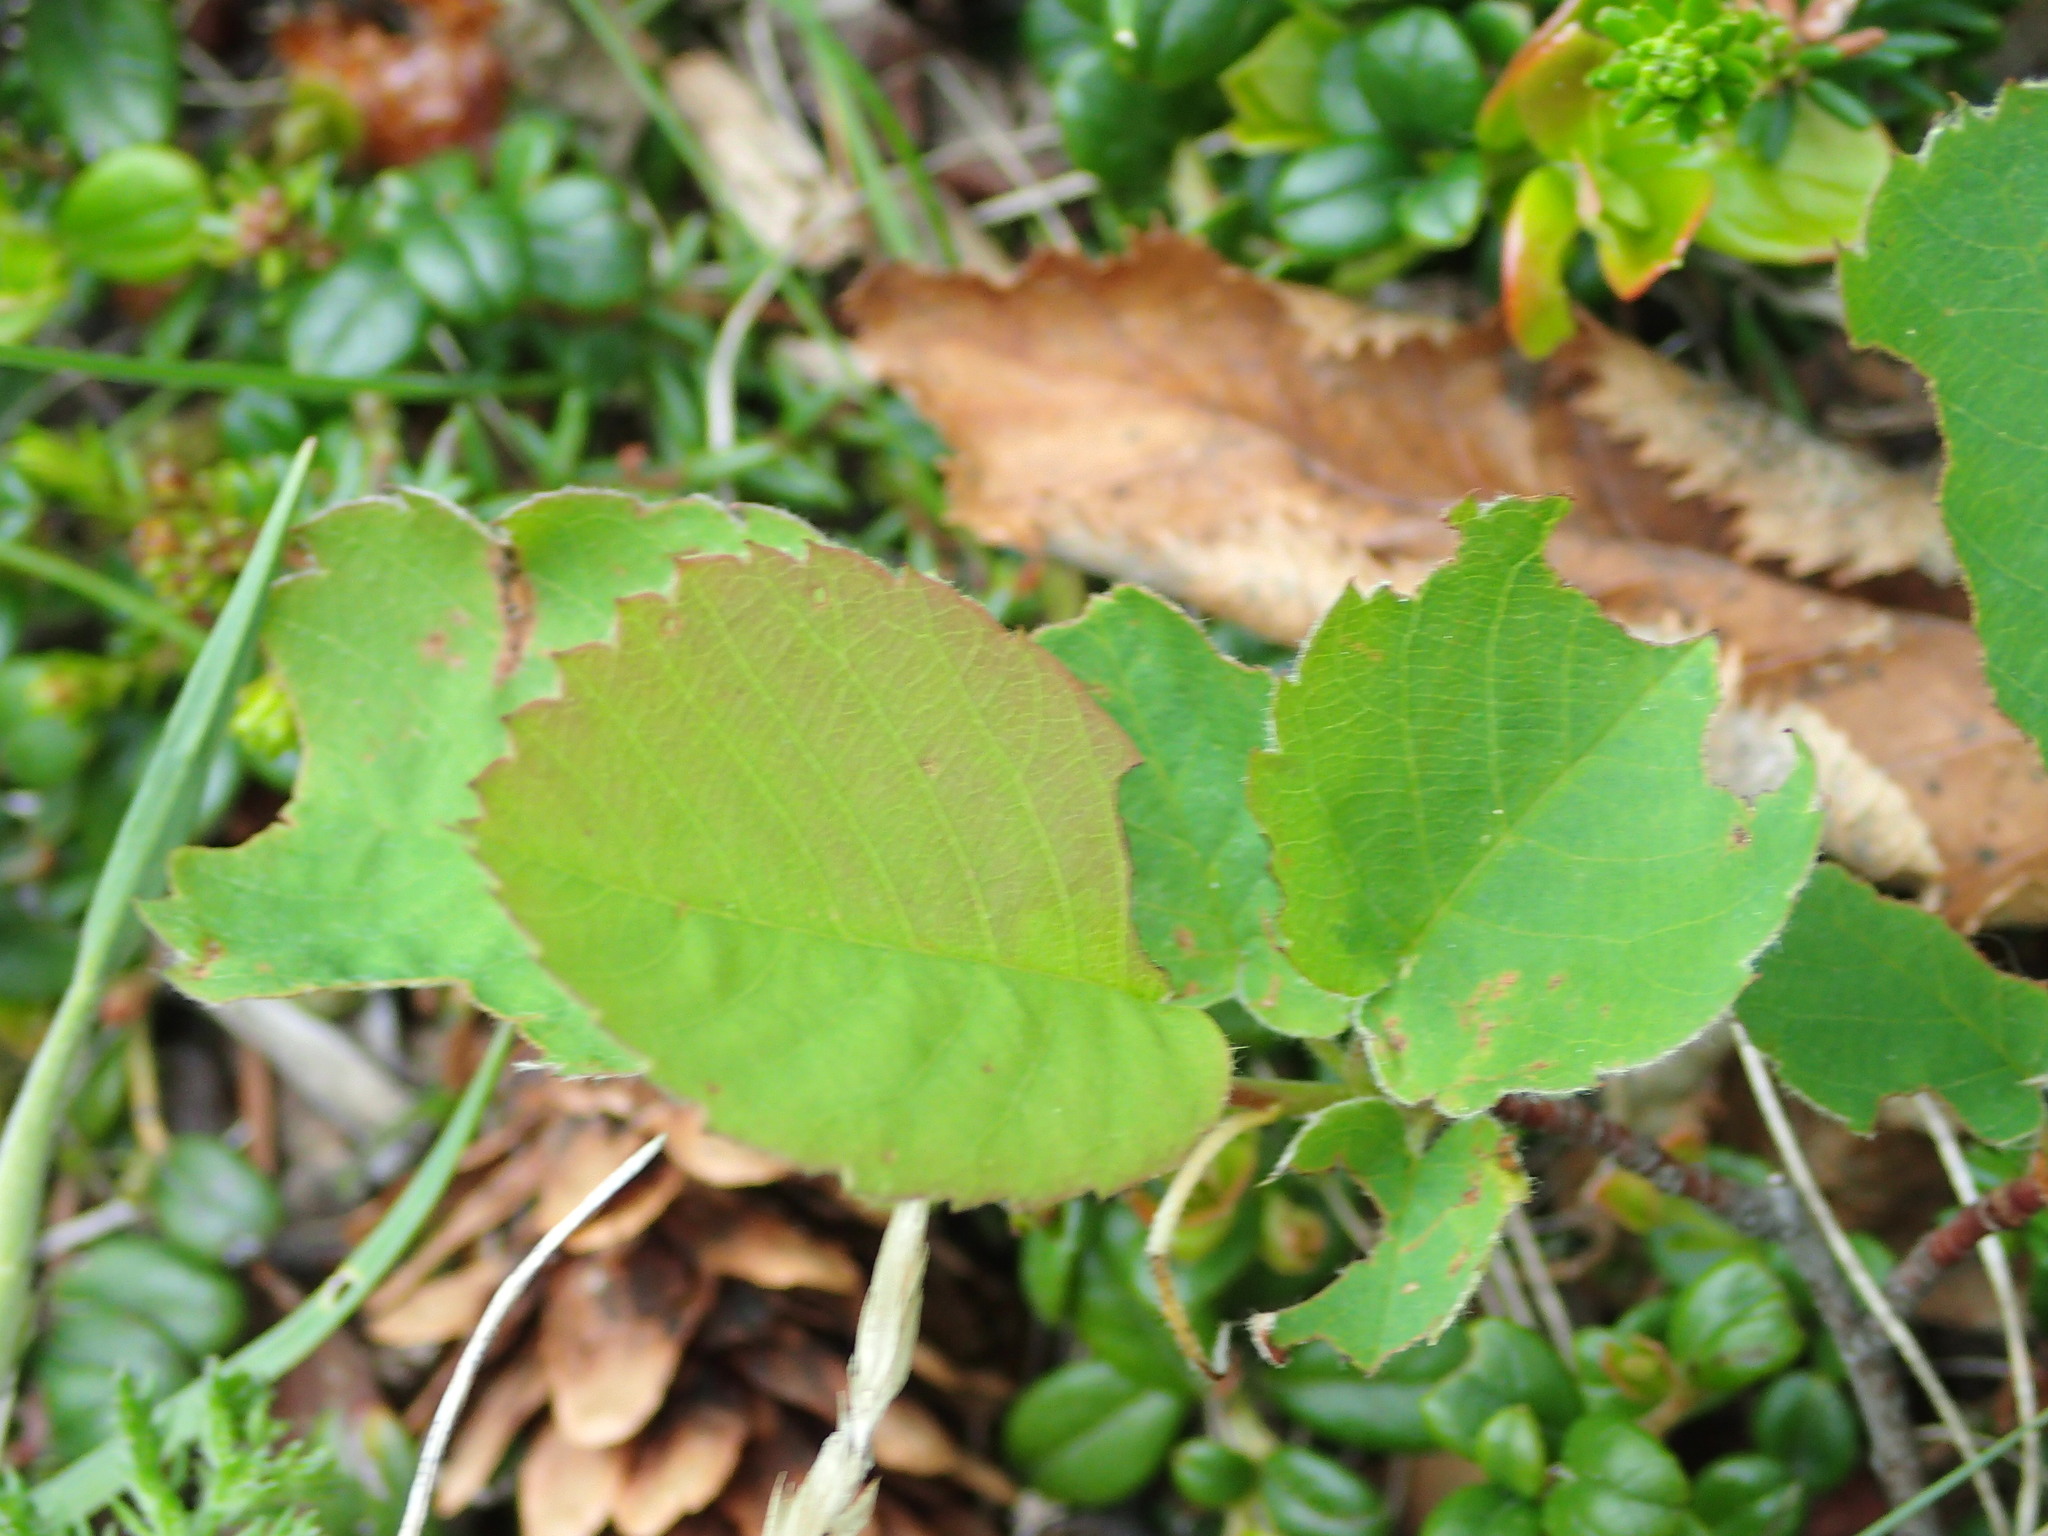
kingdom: Plantae
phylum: Tracheophyta
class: Magnoliopsida
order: Rosales
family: Rosaceae
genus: Amelanchier
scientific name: Amelanchier alnifolia
